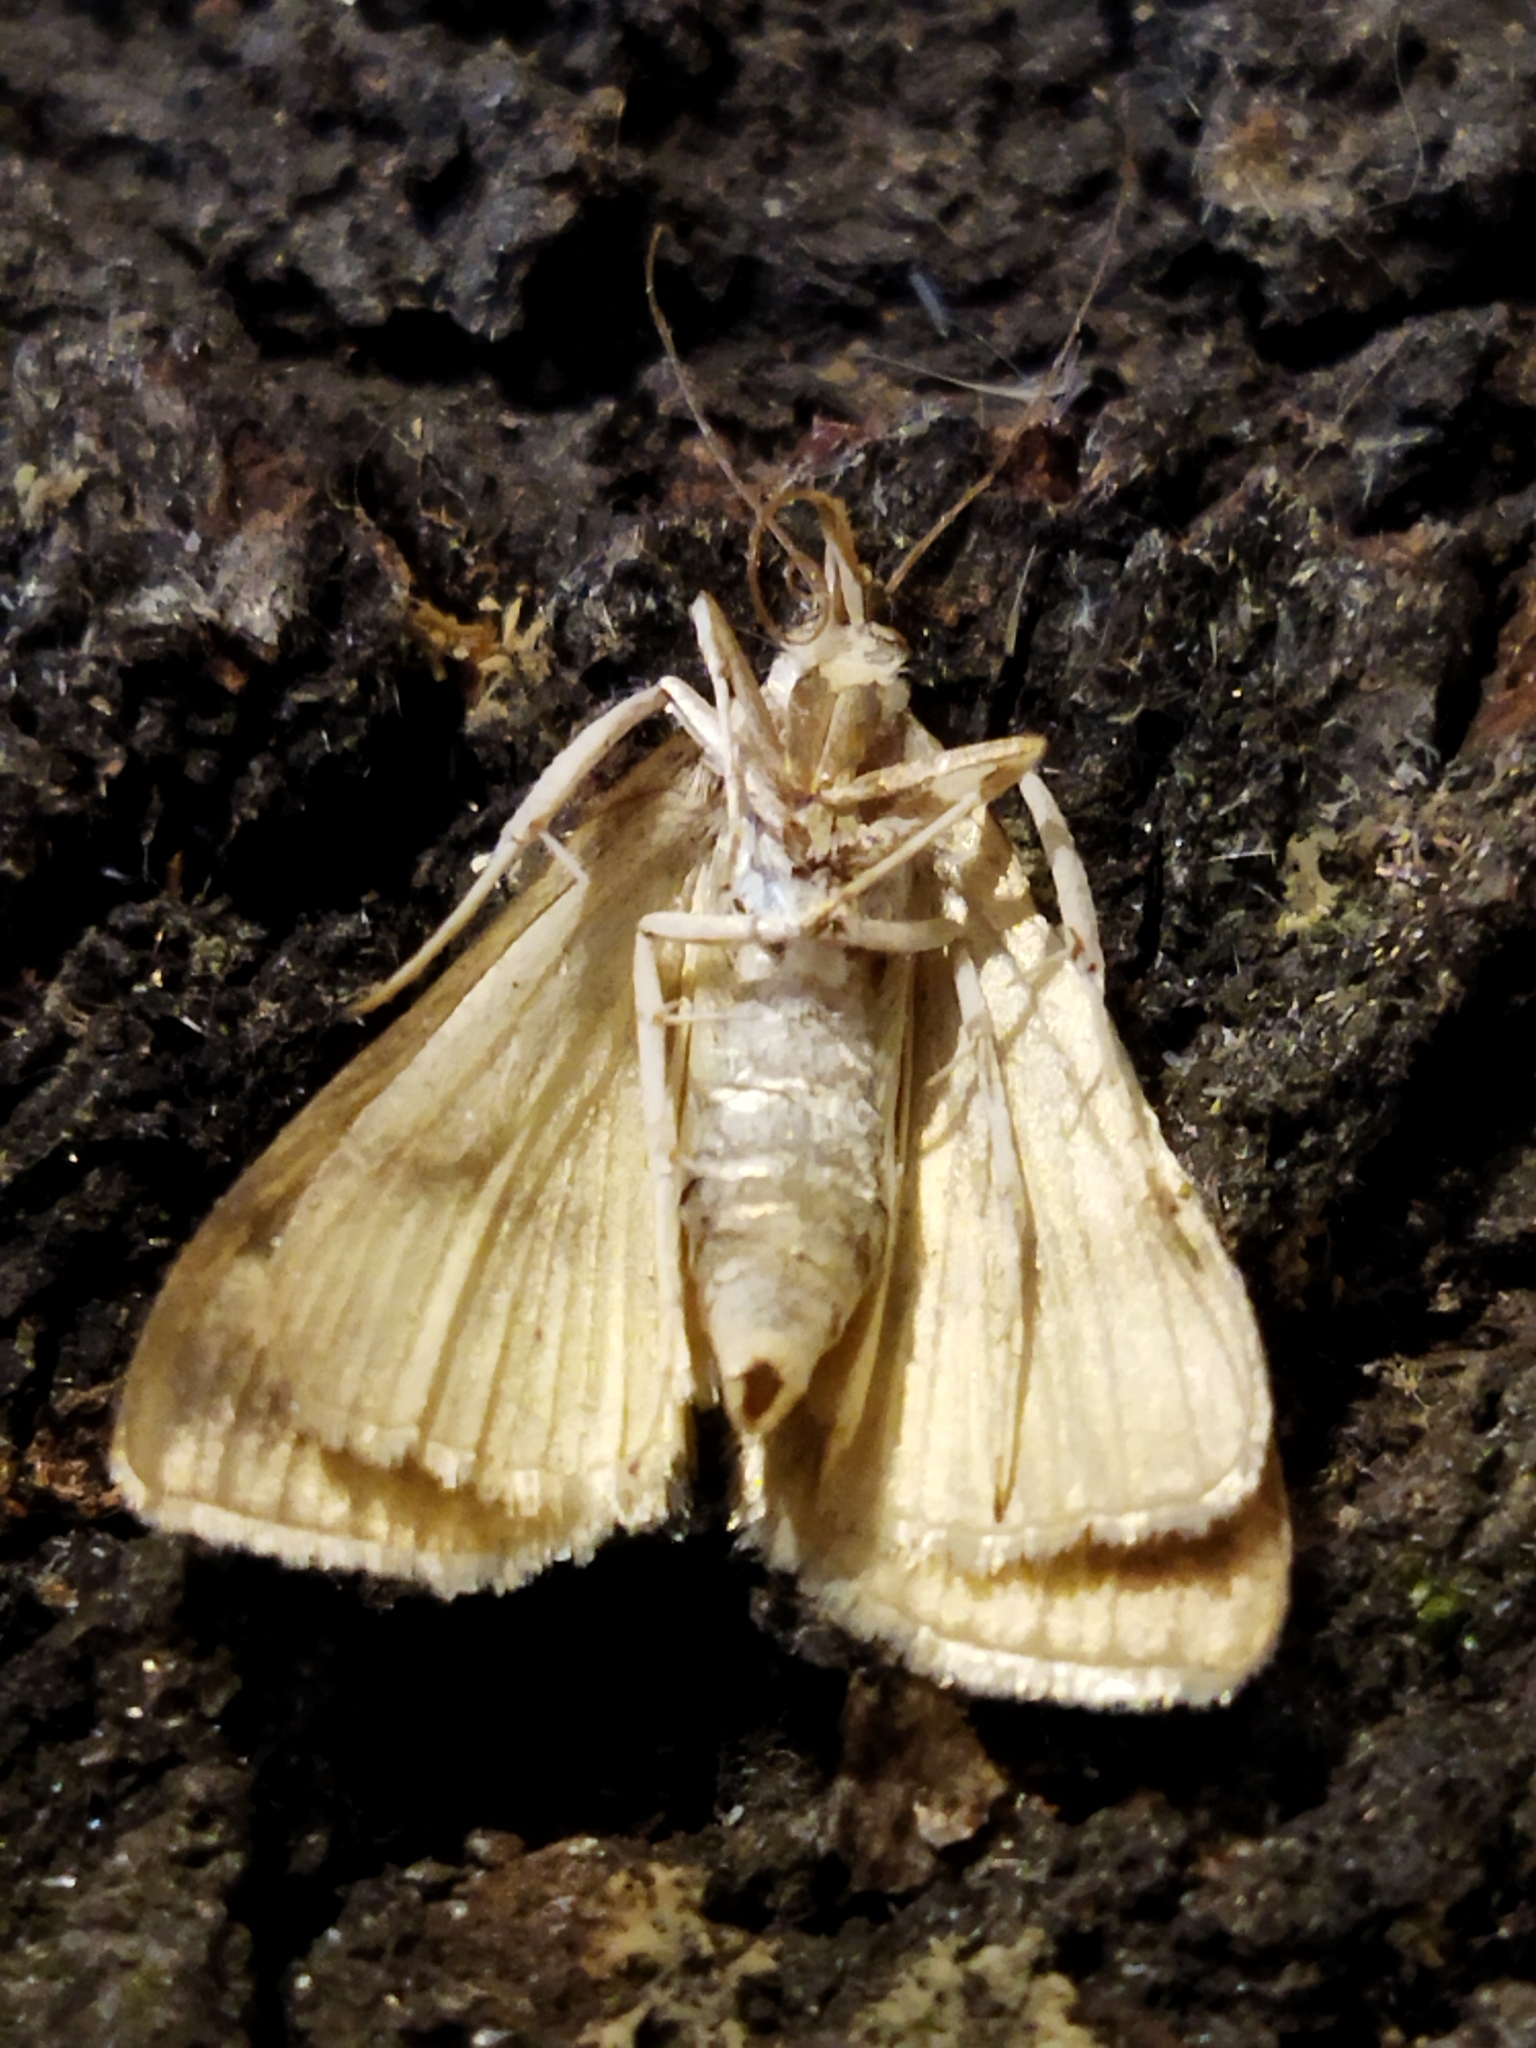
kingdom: Animalia
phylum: Arthropoda
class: Insecta
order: Lepidoptera
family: Crambidae
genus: Ostrinia
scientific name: Ostrinia nubilalis
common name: European corn borer
